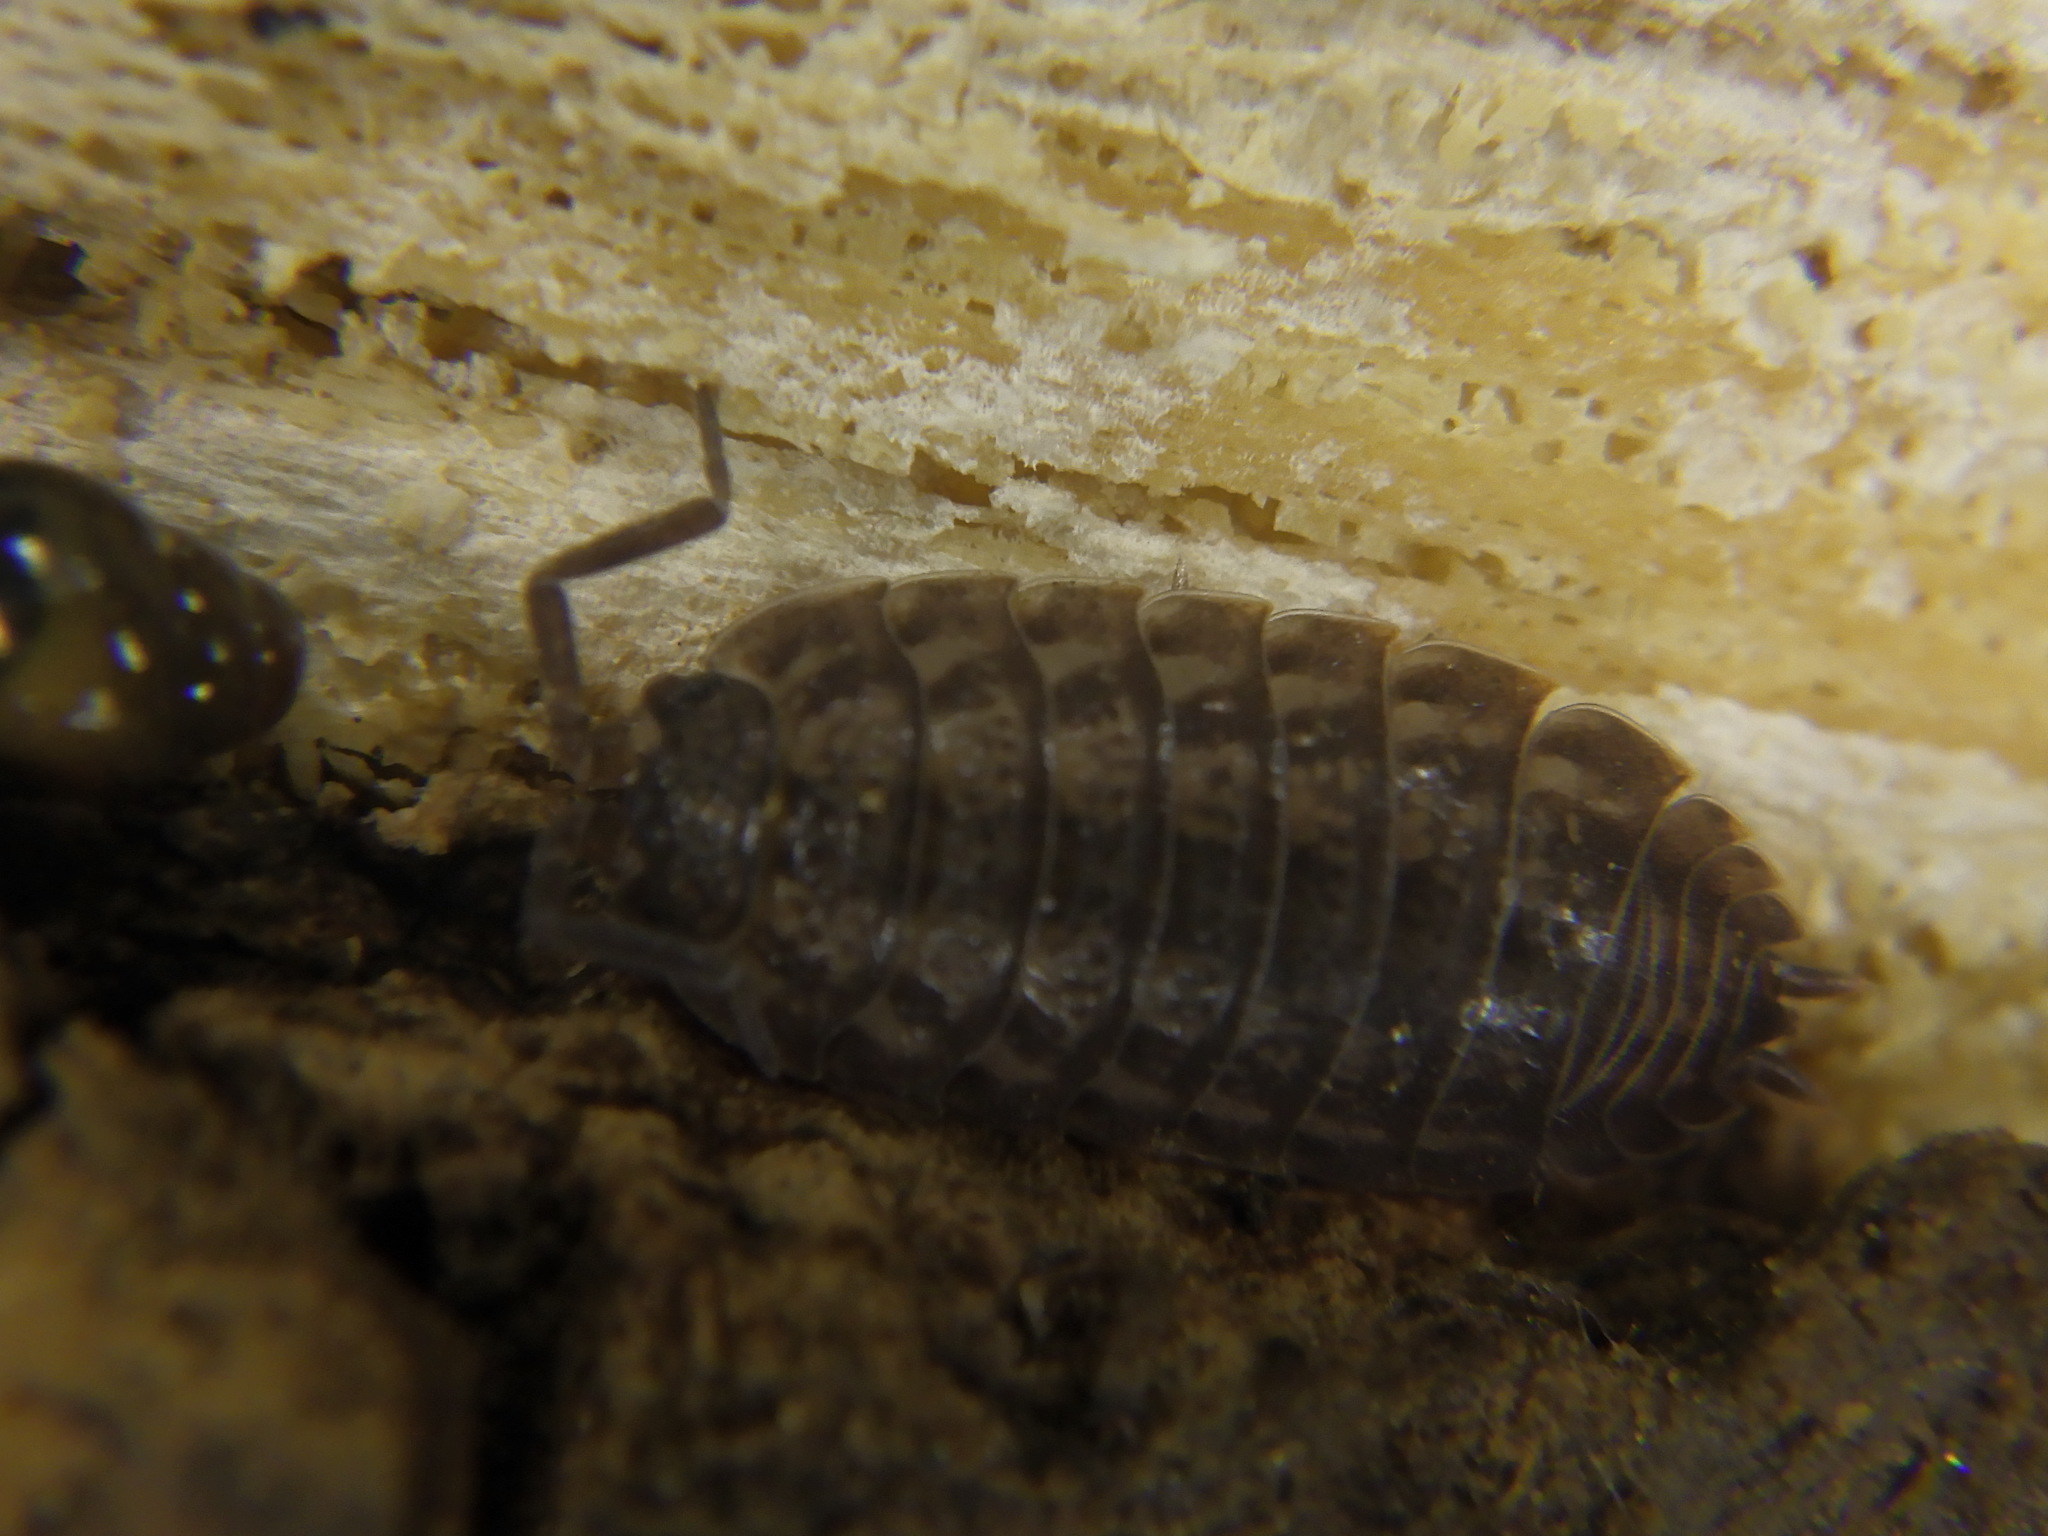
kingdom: Animalia
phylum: Arthropoda
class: Malacostraca
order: Isopoda
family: Trachelipodidae
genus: Trachelipus
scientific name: Trachelipus rathkii
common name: Isopod
